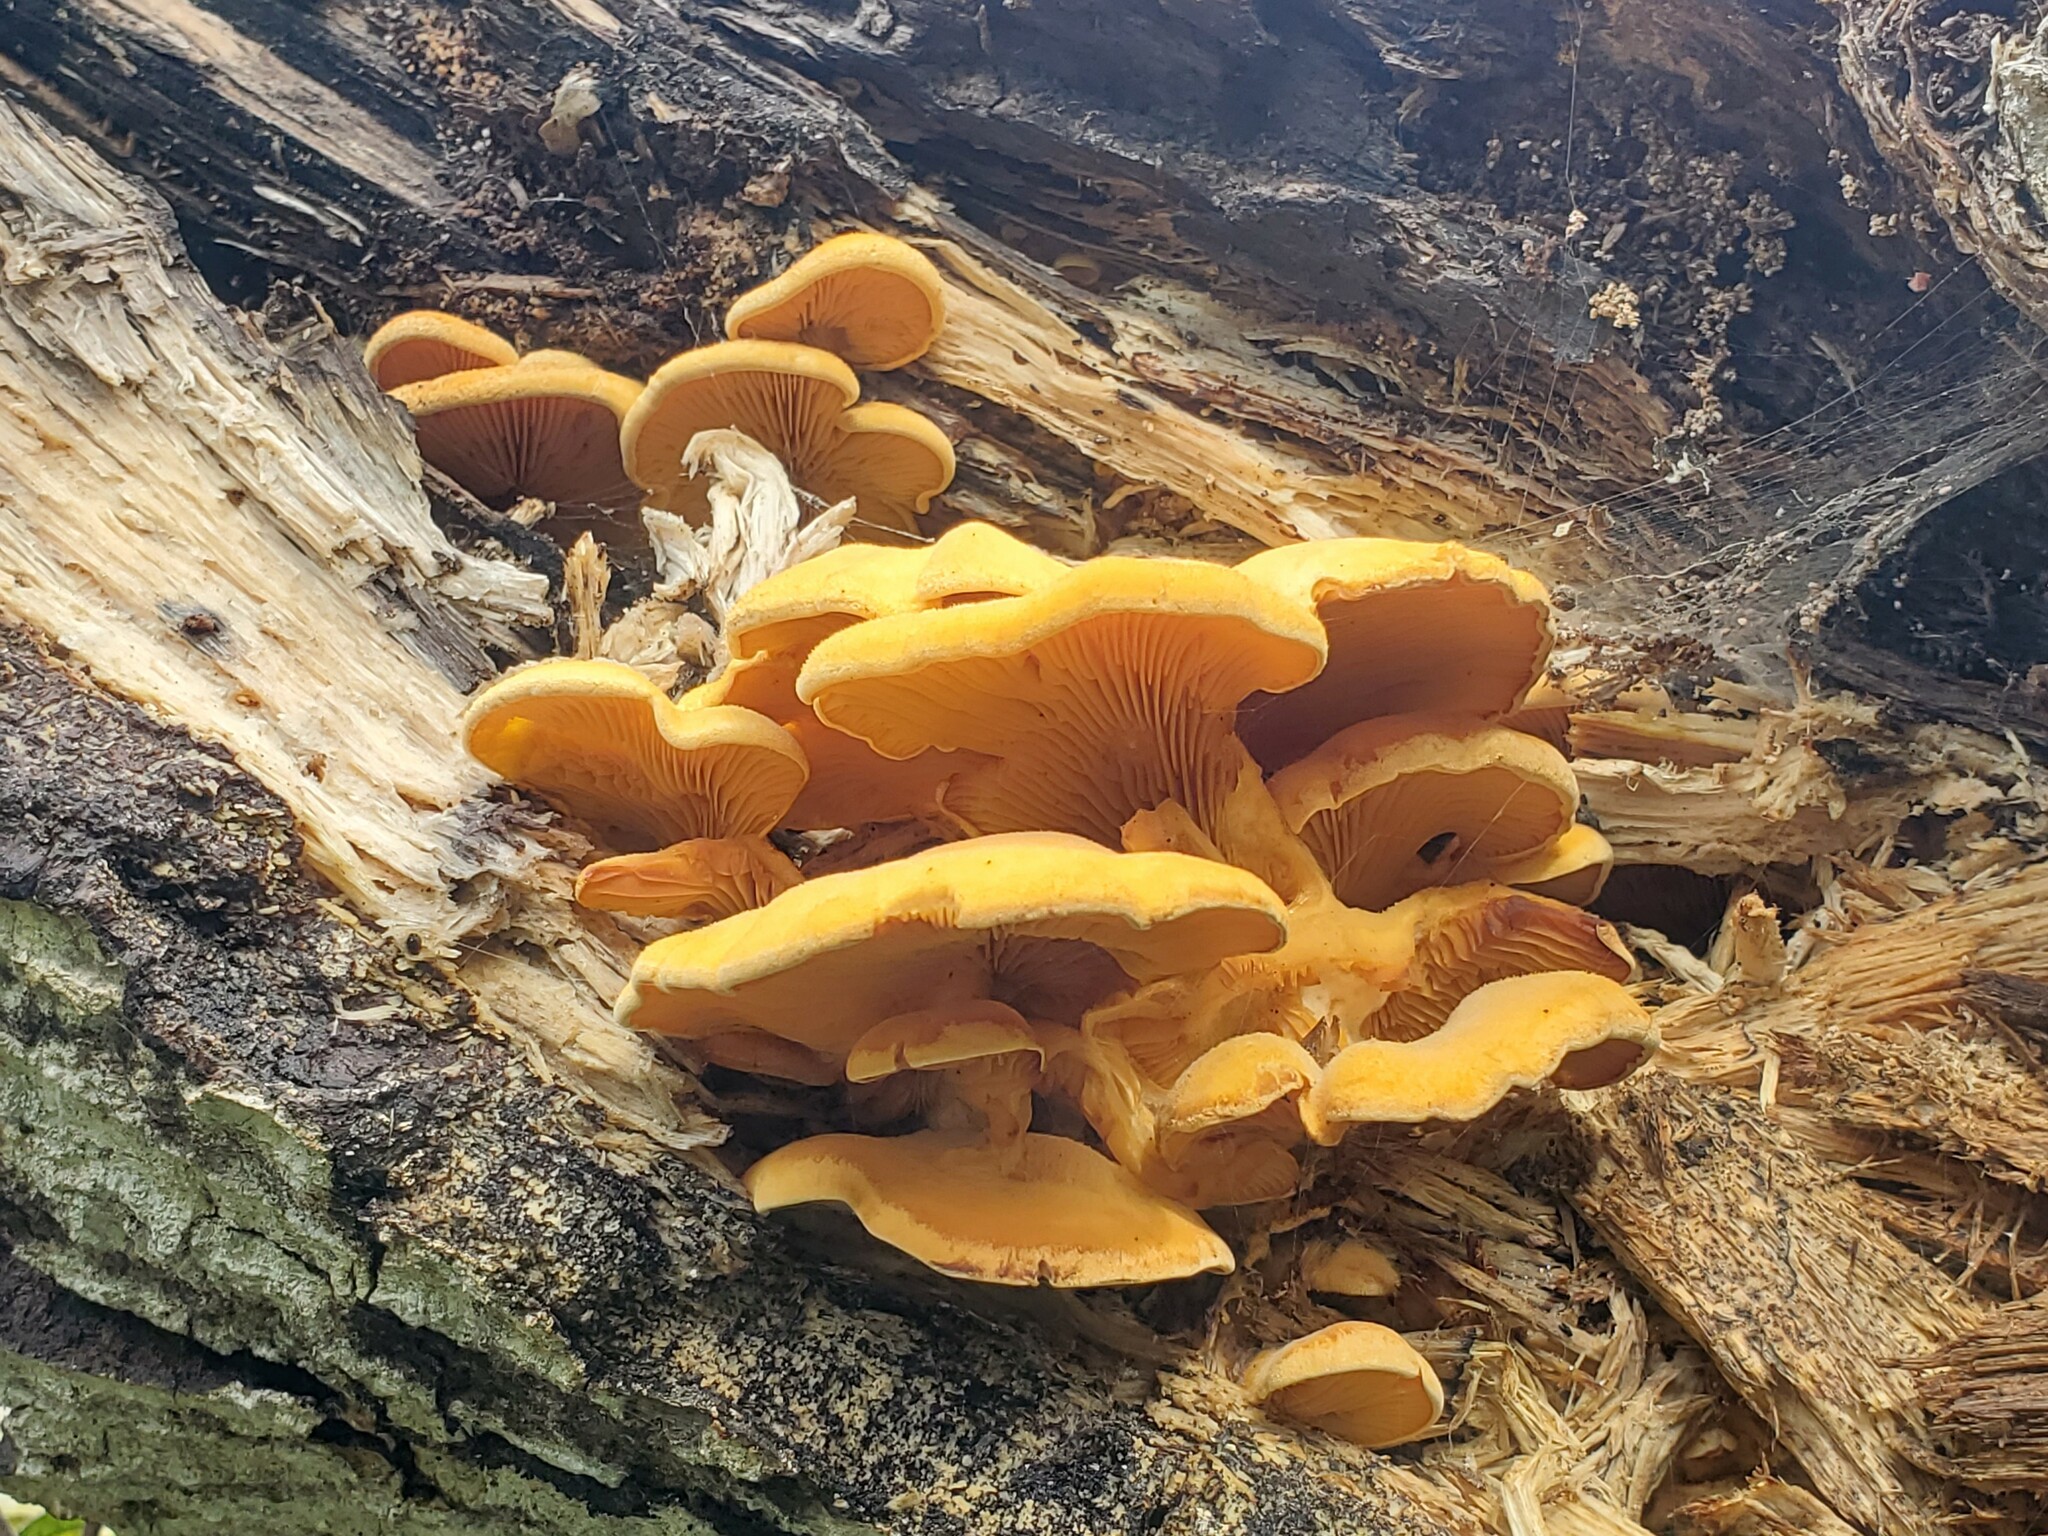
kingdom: Fungi
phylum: Basidiomycota
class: Agaricomycetes
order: Agaricales
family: Phyllotopsidaceae
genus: Phyllotopsis
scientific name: Phyllotopsis nidulans
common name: Orange mock oyster
